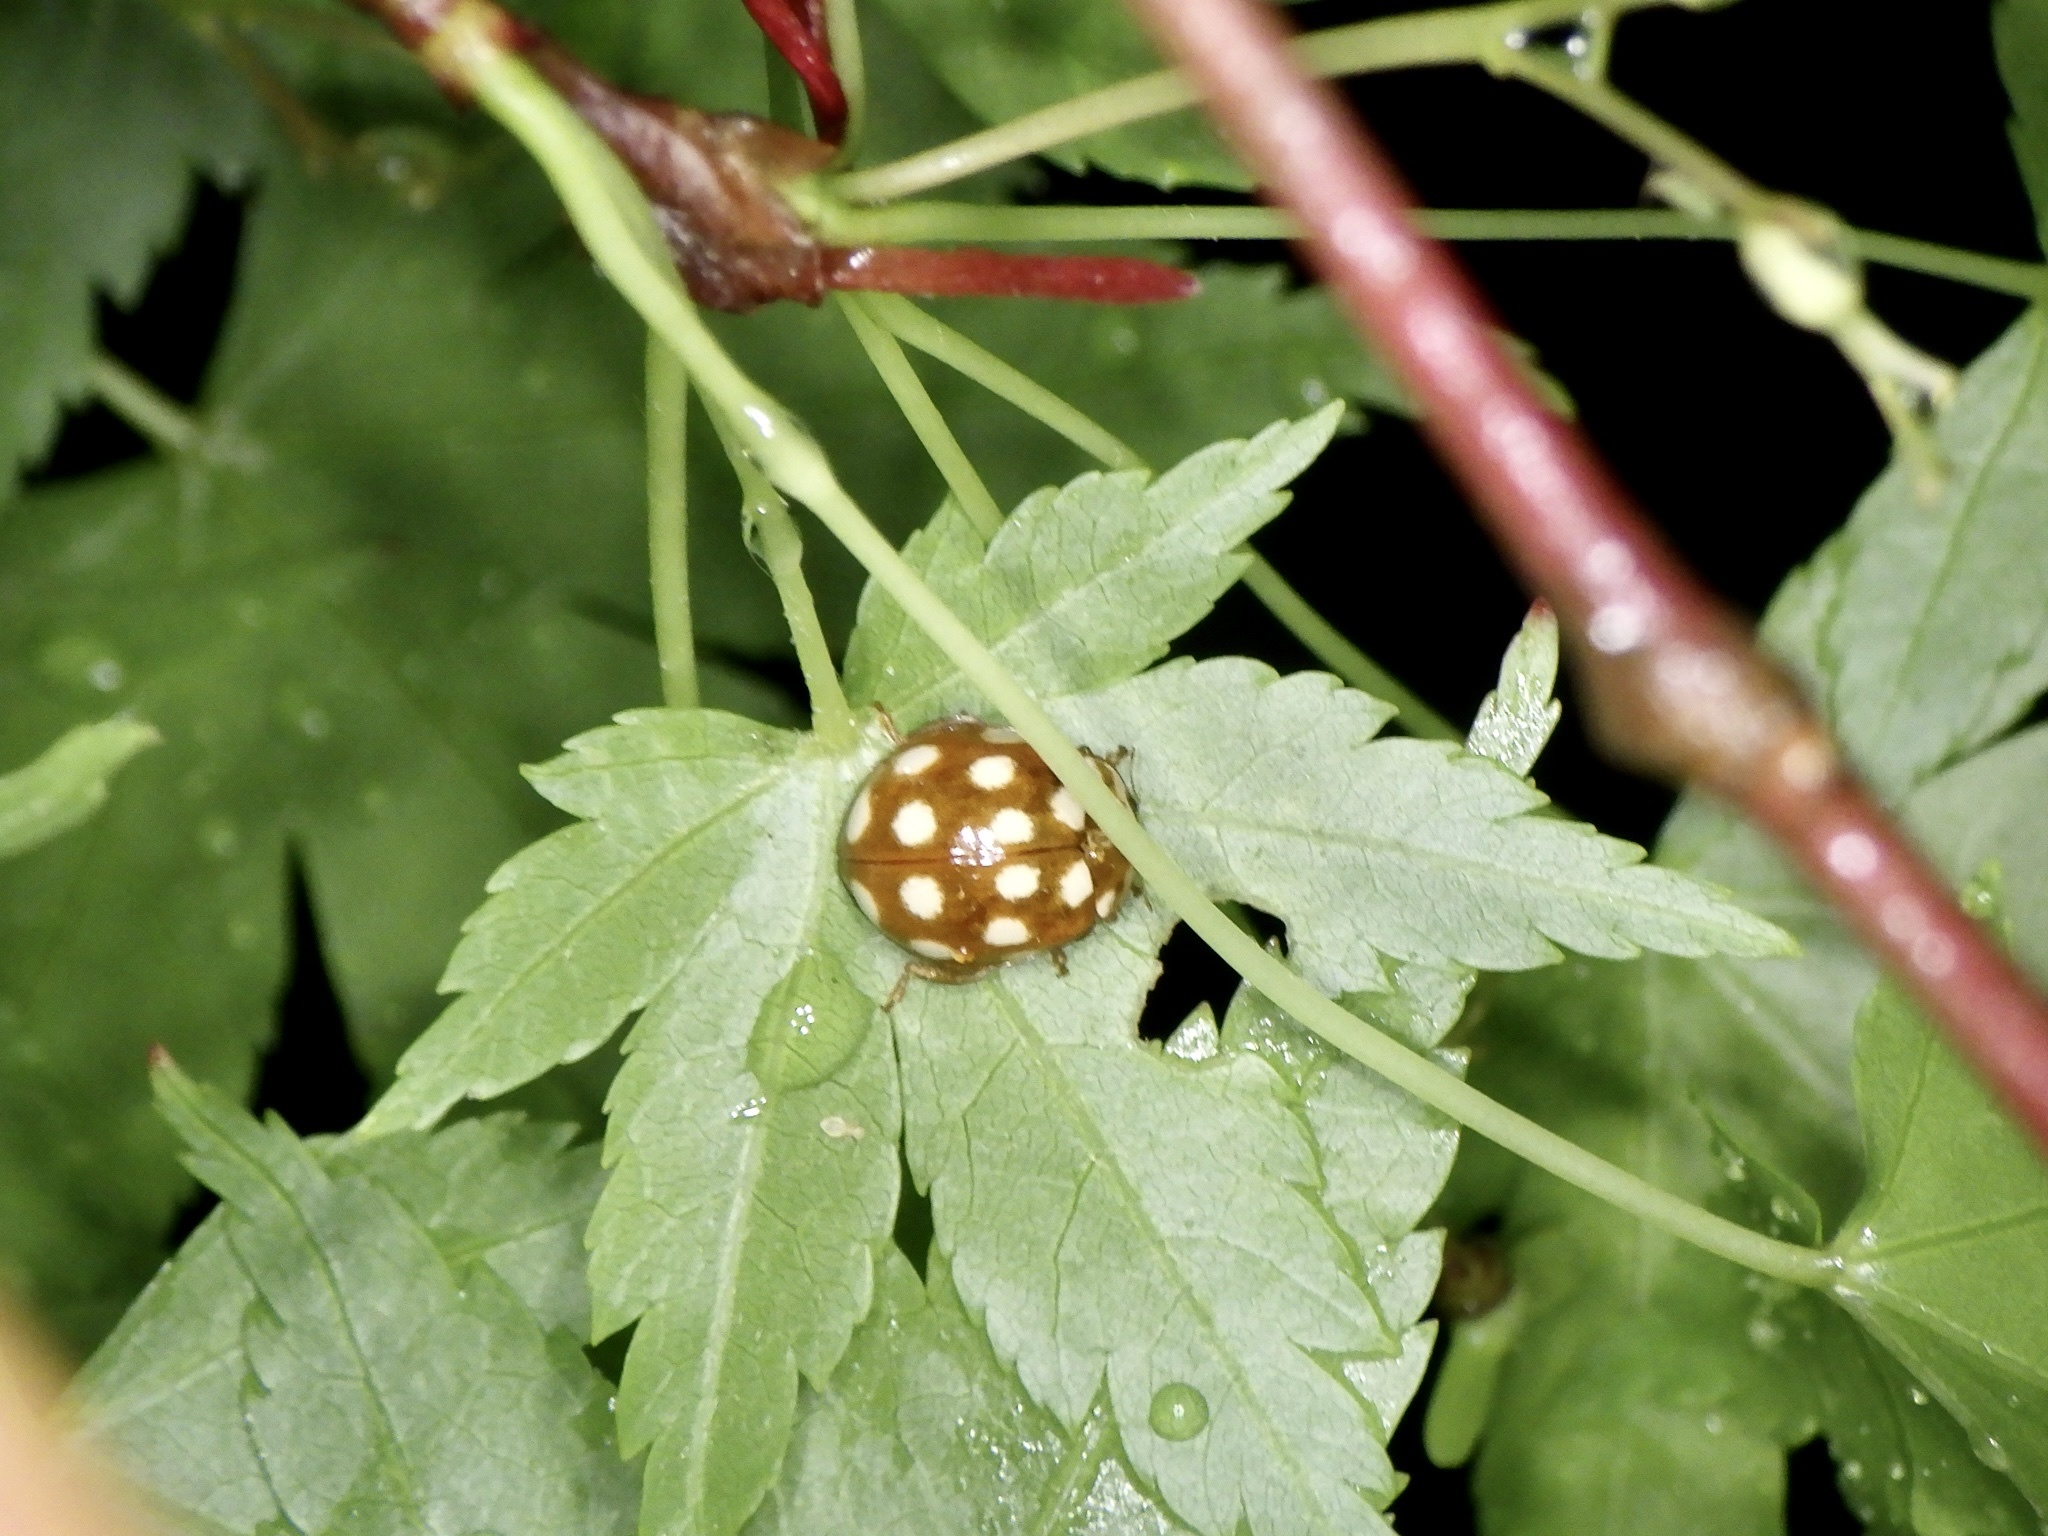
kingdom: Animalia
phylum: Arthropoda
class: Insecta
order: Coleoptera
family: Coccinellidae
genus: Calvia
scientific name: Calvia quatuordecimguttata
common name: Cream-spot ladybird
